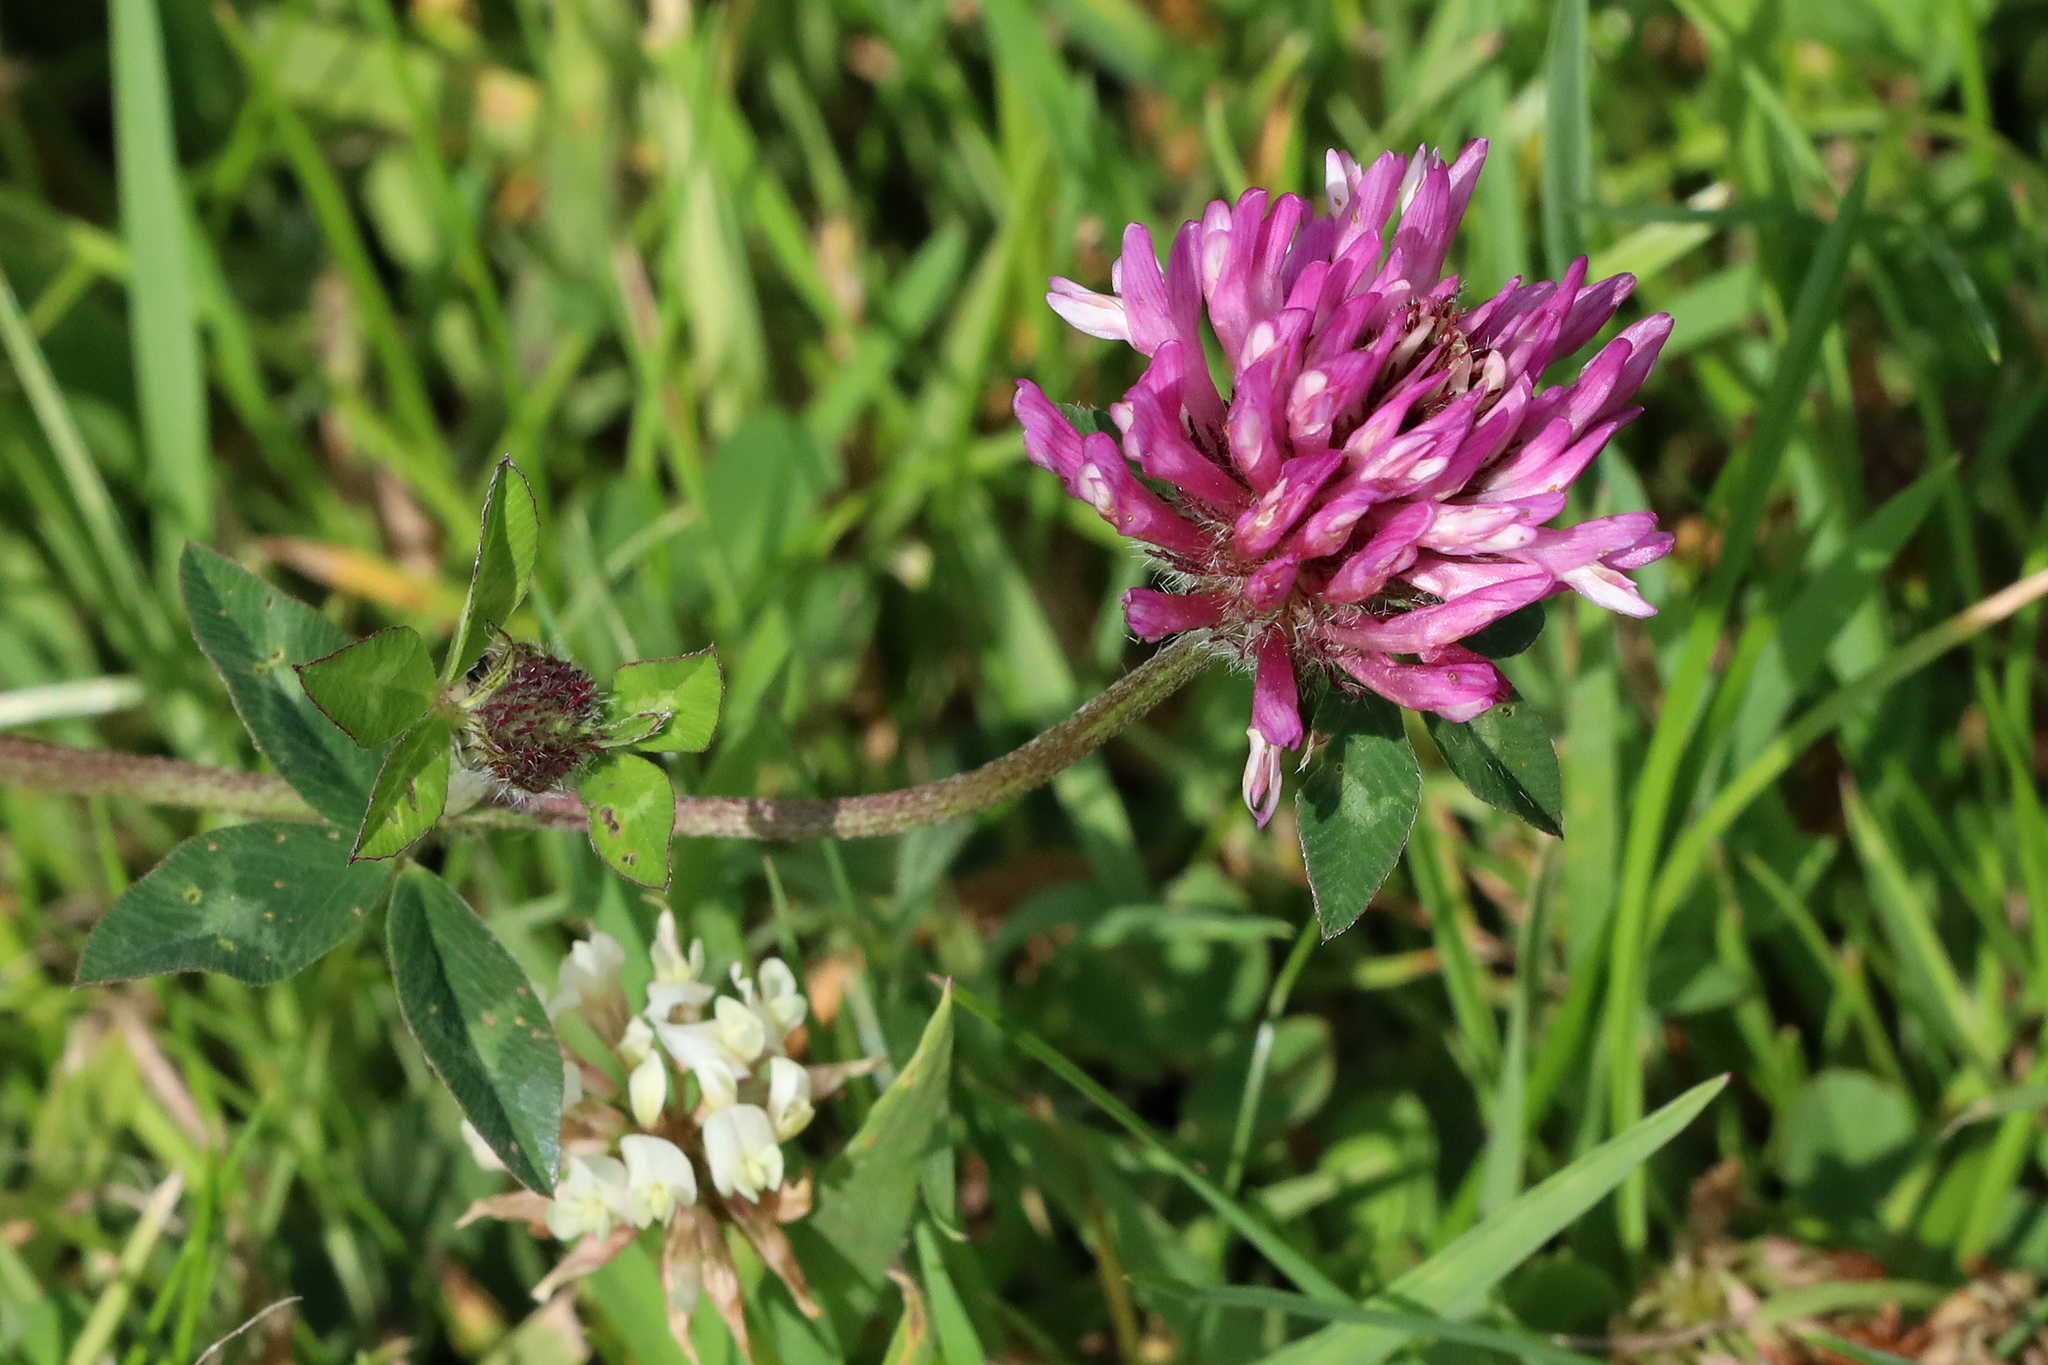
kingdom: Plantae
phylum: Tracheophyta
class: Magnoliopsida
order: Fabales
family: Fabaceae
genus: Trifolium
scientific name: Trifolium pratense
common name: Red clover
